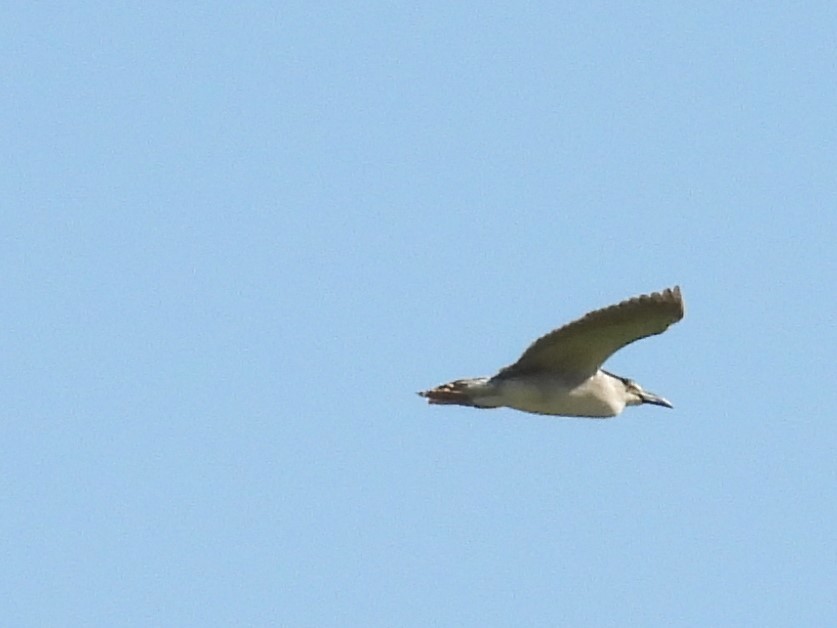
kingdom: Animalia
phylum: Chordata
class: Aves
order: Pelecaniformes
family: Ardeidae
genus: Nycticorax
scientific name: Nycticorax nycticorax
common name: Black-crowned night heron
